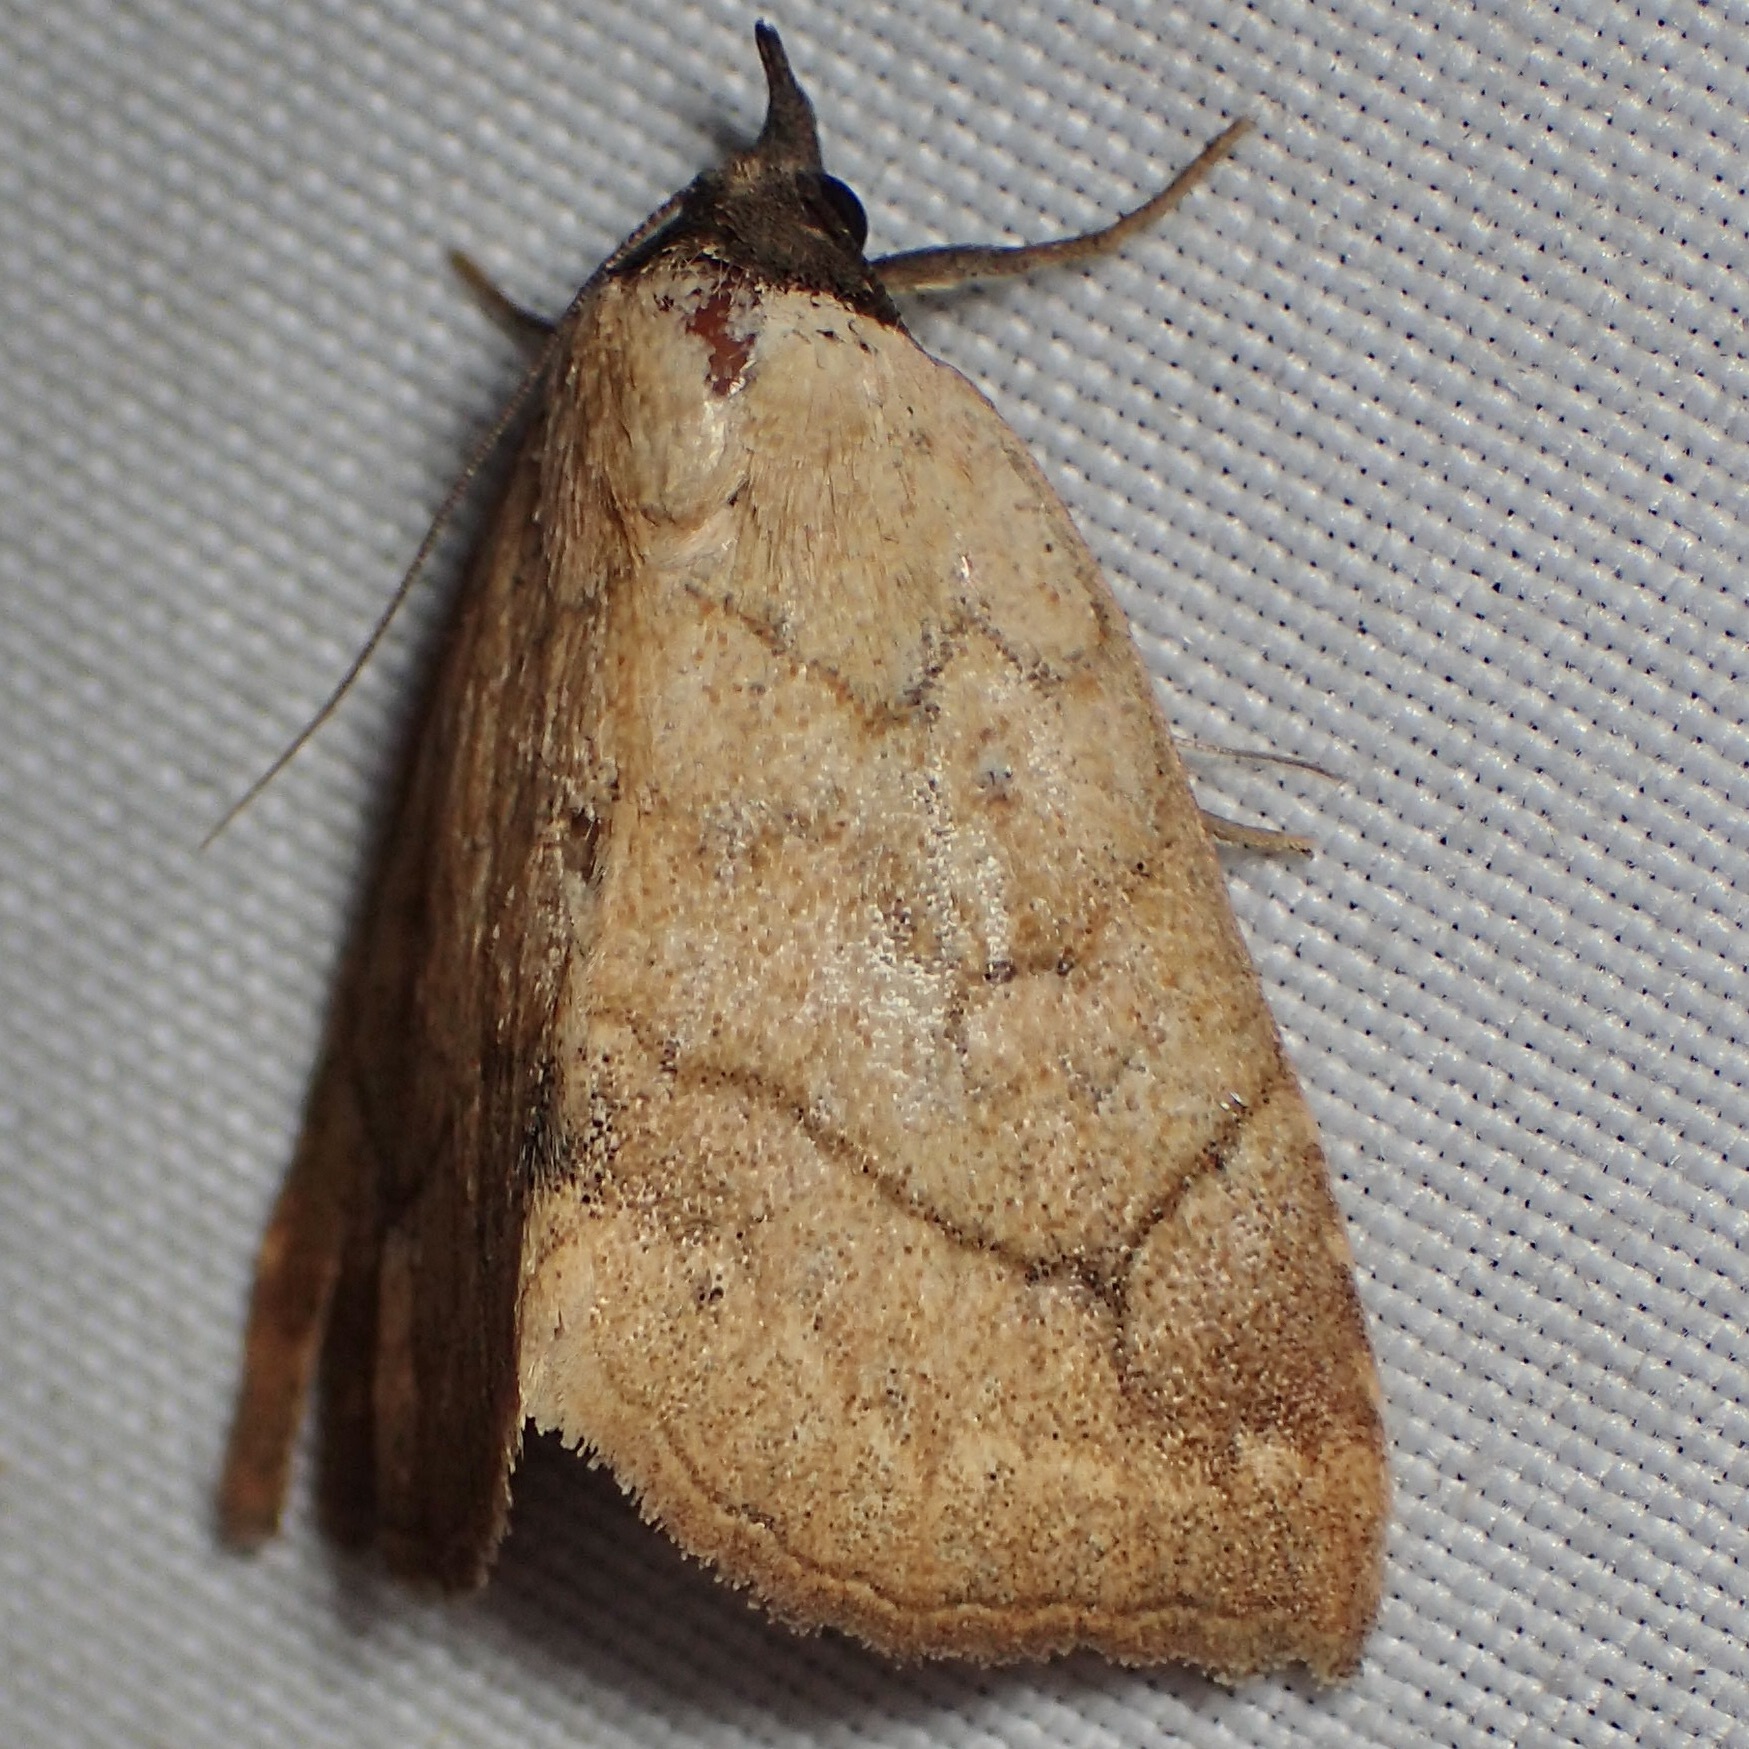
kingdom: Animalia
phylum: Arthropoda
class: Insecta
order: Lepidoptera
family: Erebidae
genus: Isogona
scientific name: Isogona punctipennis
